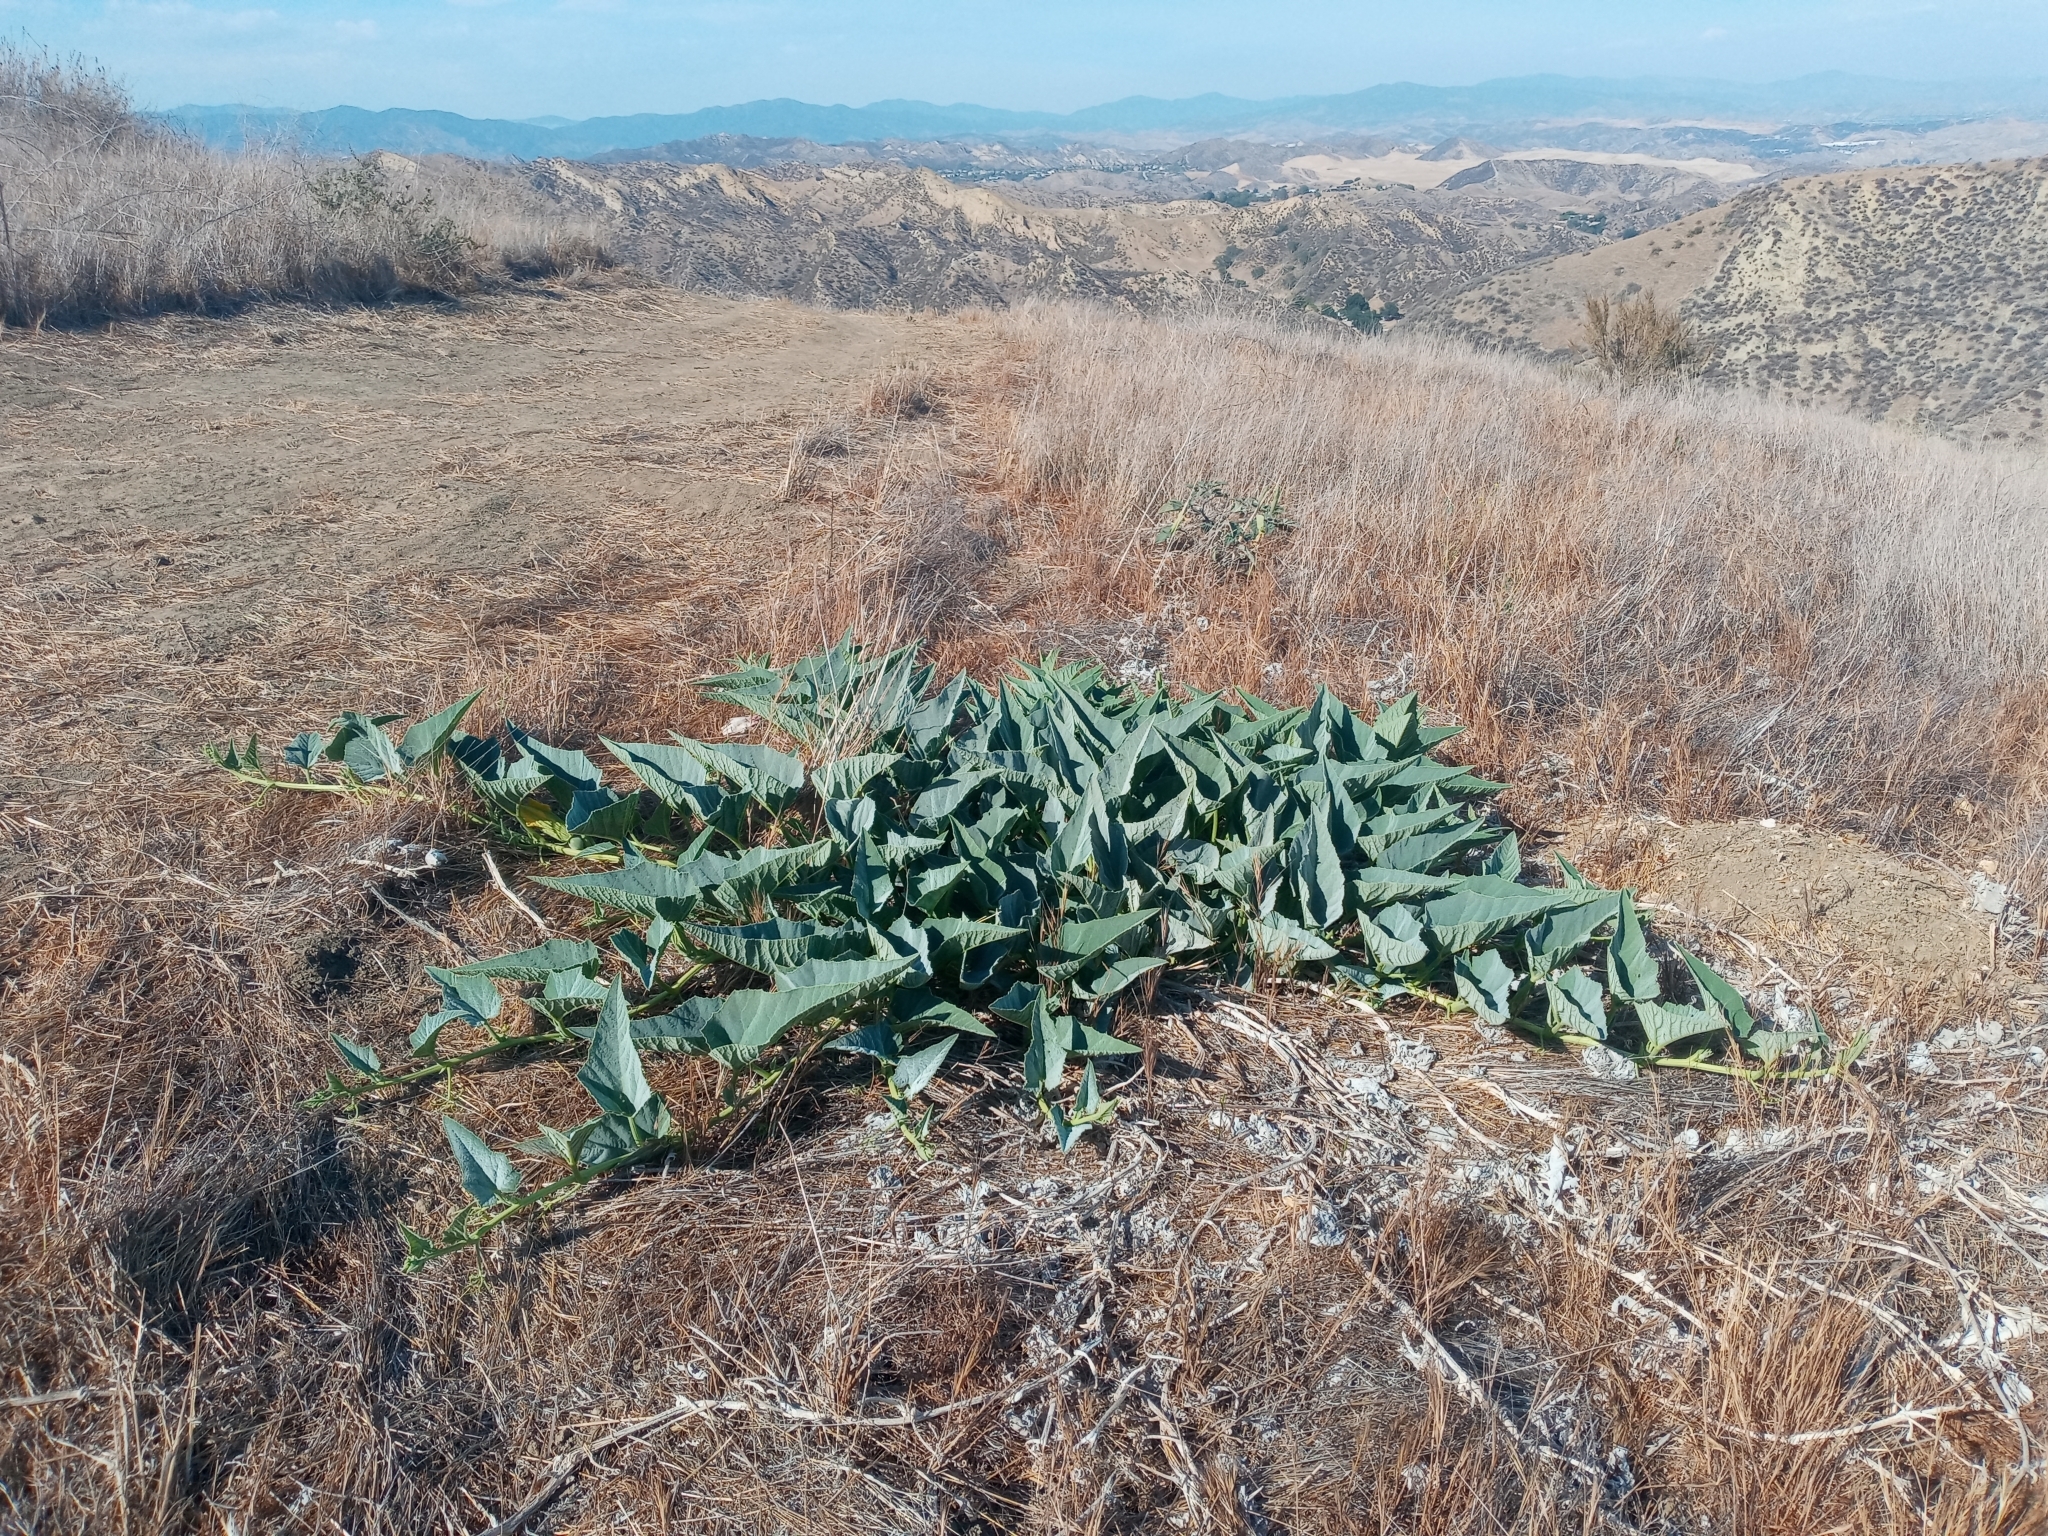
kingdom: Plantae
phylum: Tracheophyta
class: Magnoliopsida
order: Cucurbitales
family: Cucurbitaceae
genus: Cucurbita
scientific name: Cucurbita foetidissima
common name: Buffalo gourd
